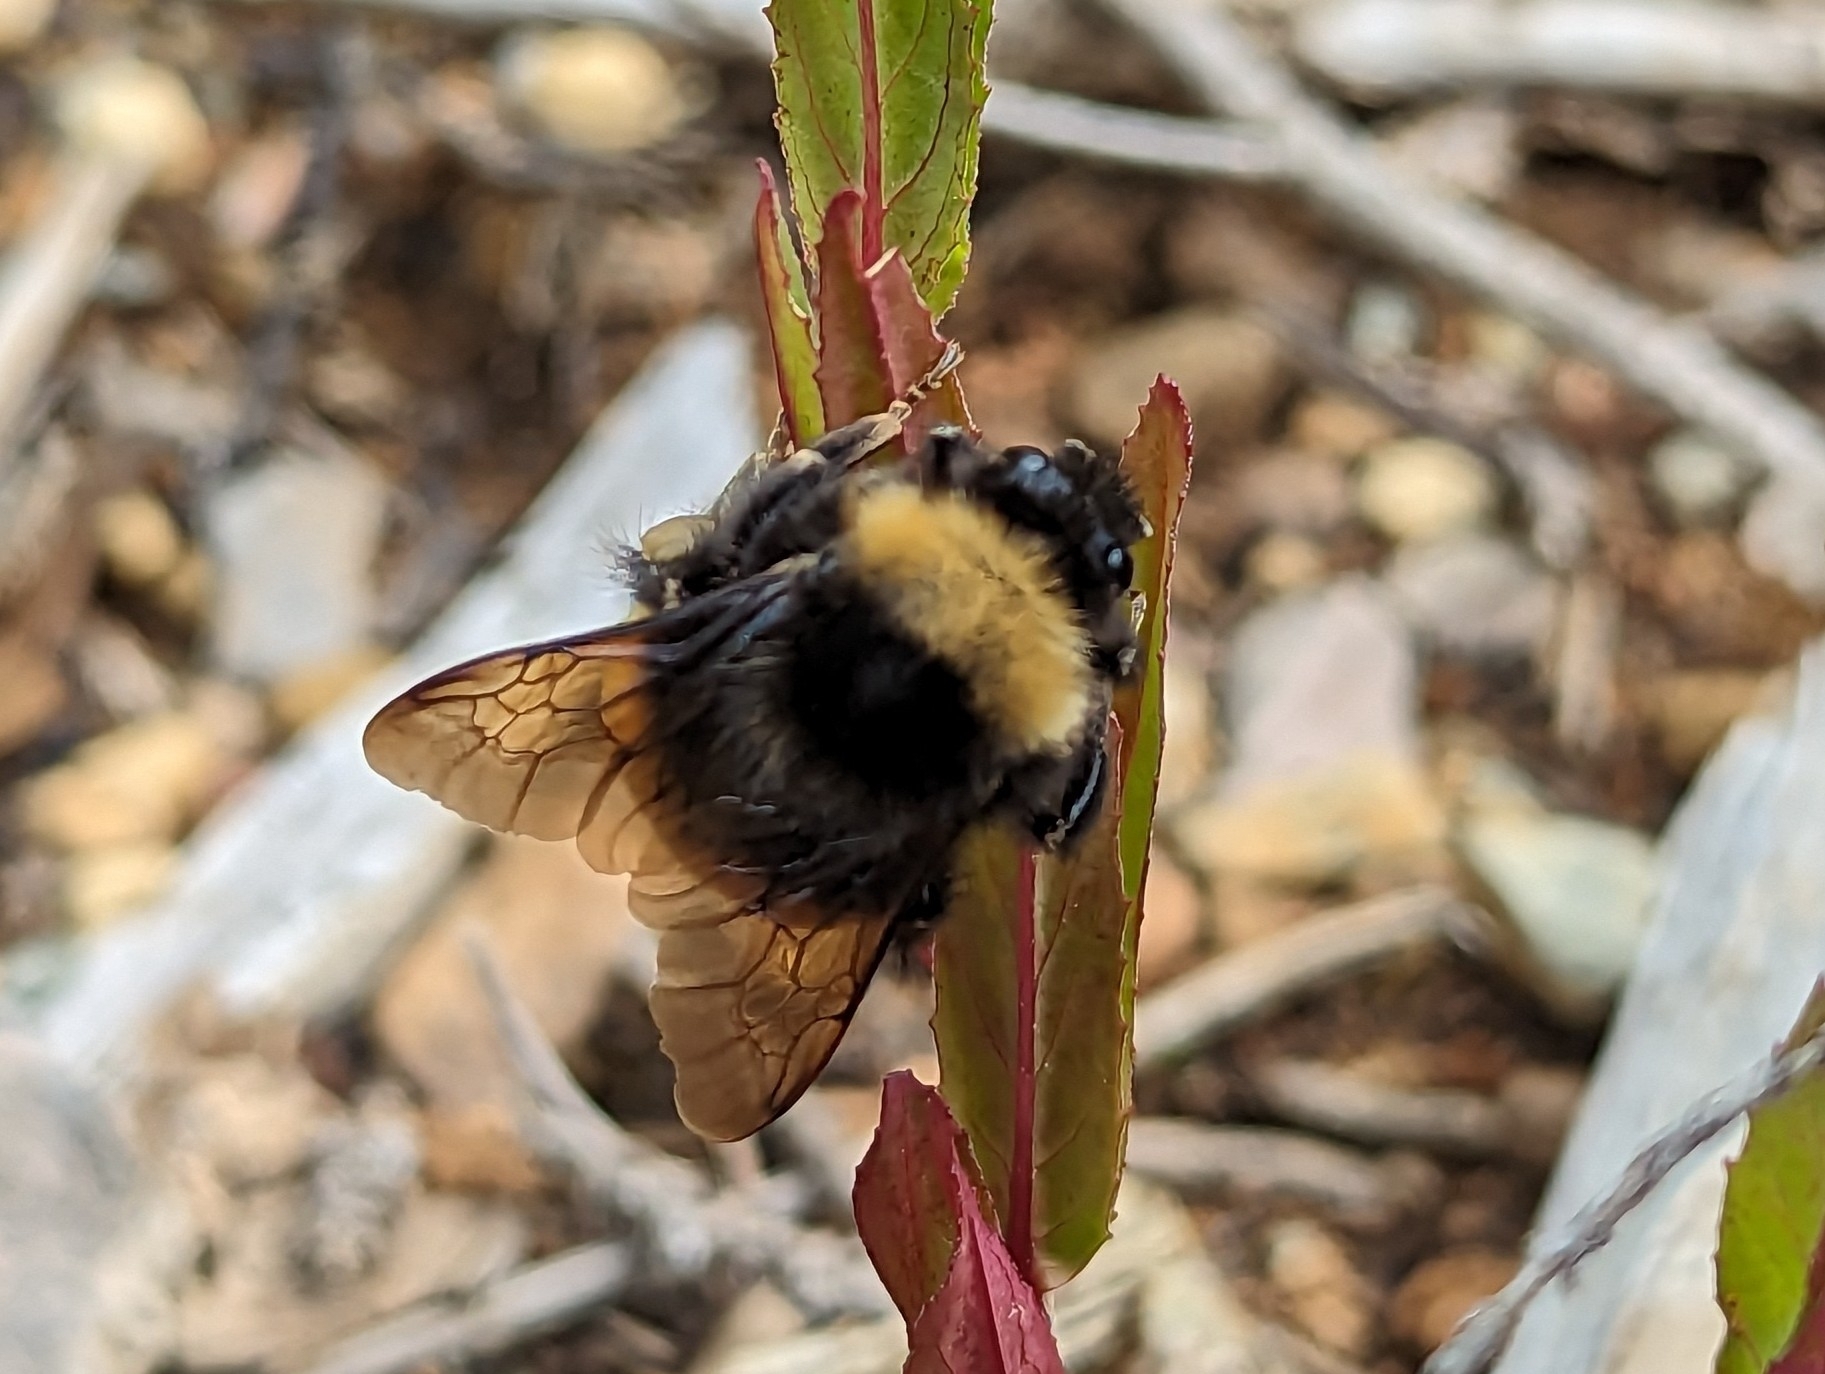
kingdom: Animalia
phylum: Arthropoda
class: Insecta
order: Hymenoptera
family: Apidae
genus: Bombus
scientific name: Bombus terricola
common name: Yellow-banded bumble bee
